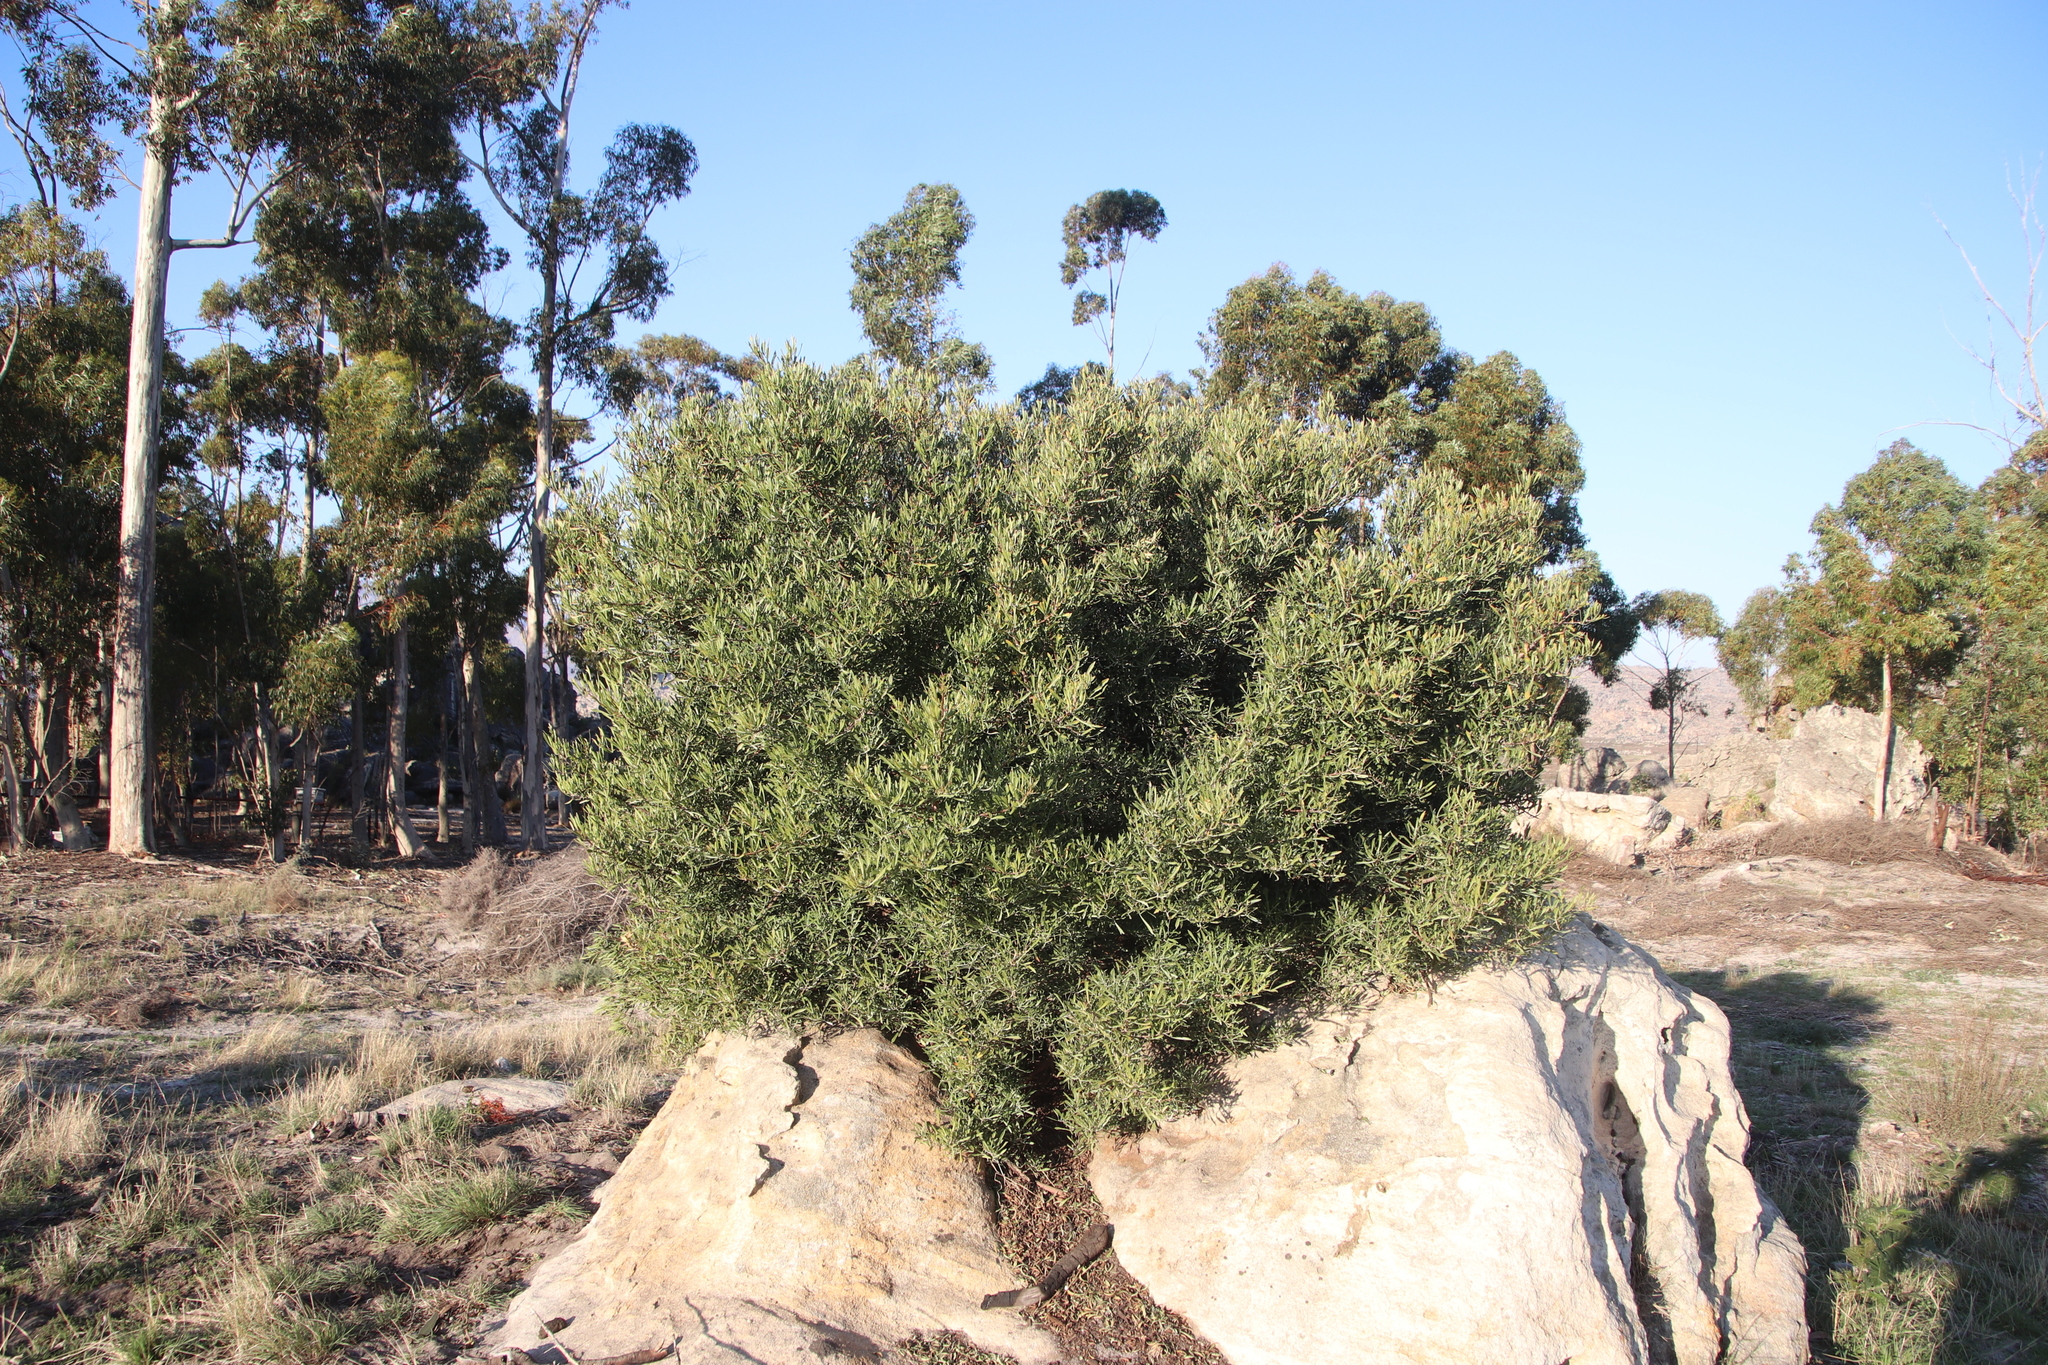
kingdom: Plantae
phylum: Tracheophyta
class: Magnoliopsida
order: Sapindales
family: Anacardiaceae
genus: Searsia
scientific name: Searsia rimosa
